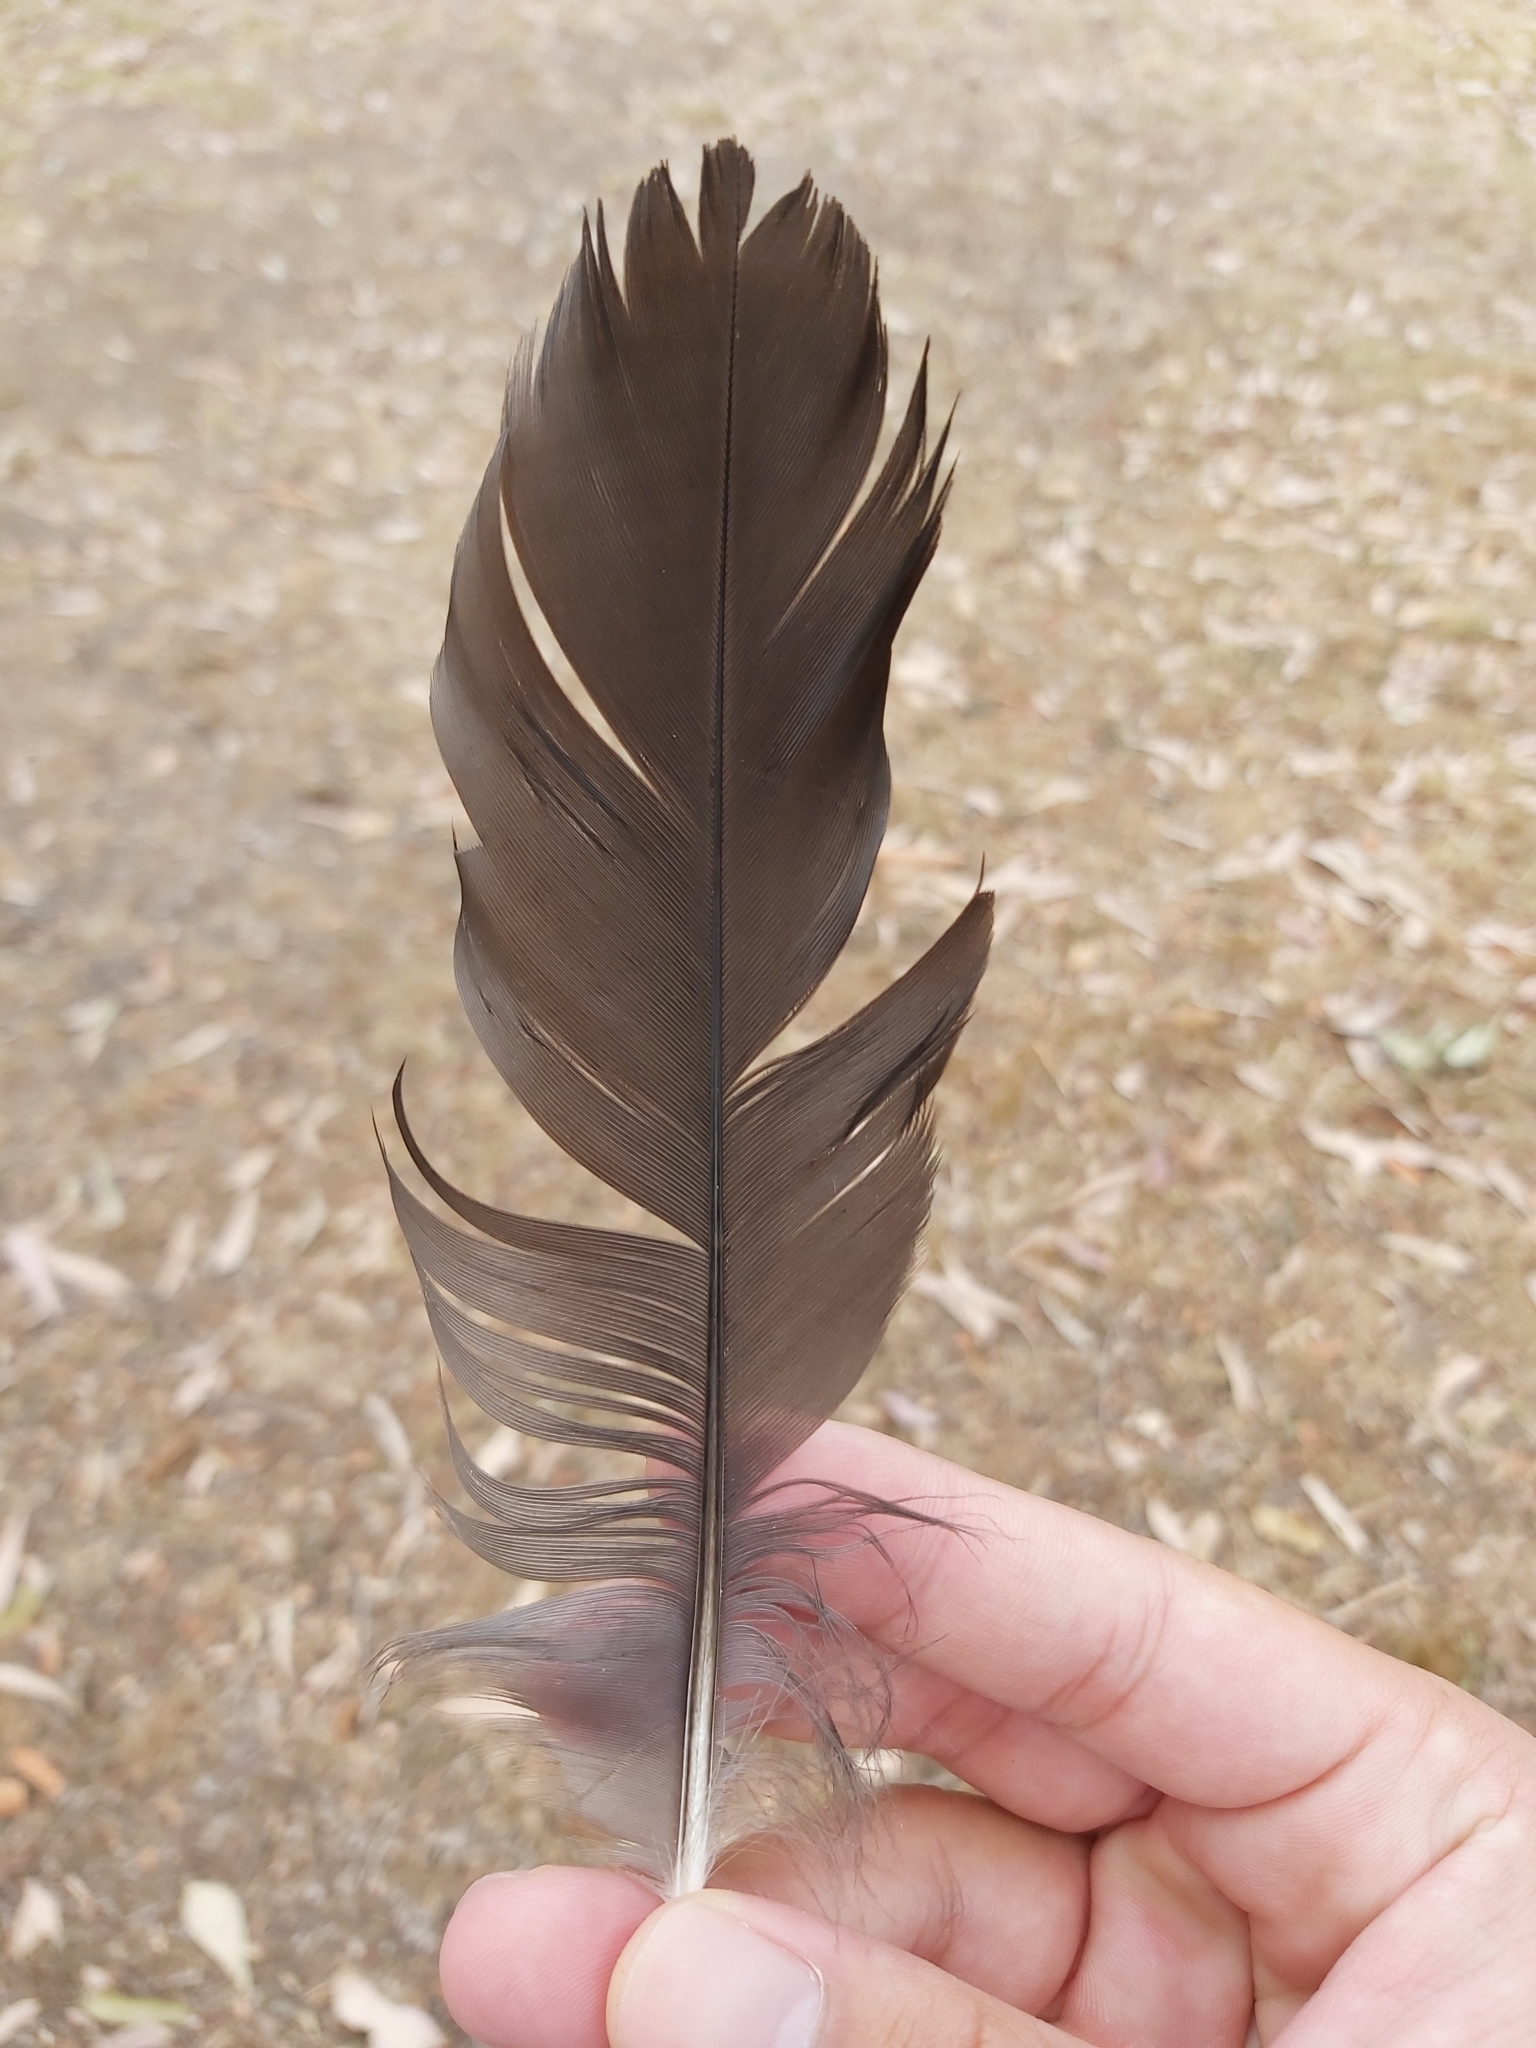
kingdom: Animalia
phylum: Chordata
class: Aves
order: Gruiformes
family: Rallidae
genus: Gallinula
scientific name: Gallinula tenebrosa
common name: Dusky moorhen
